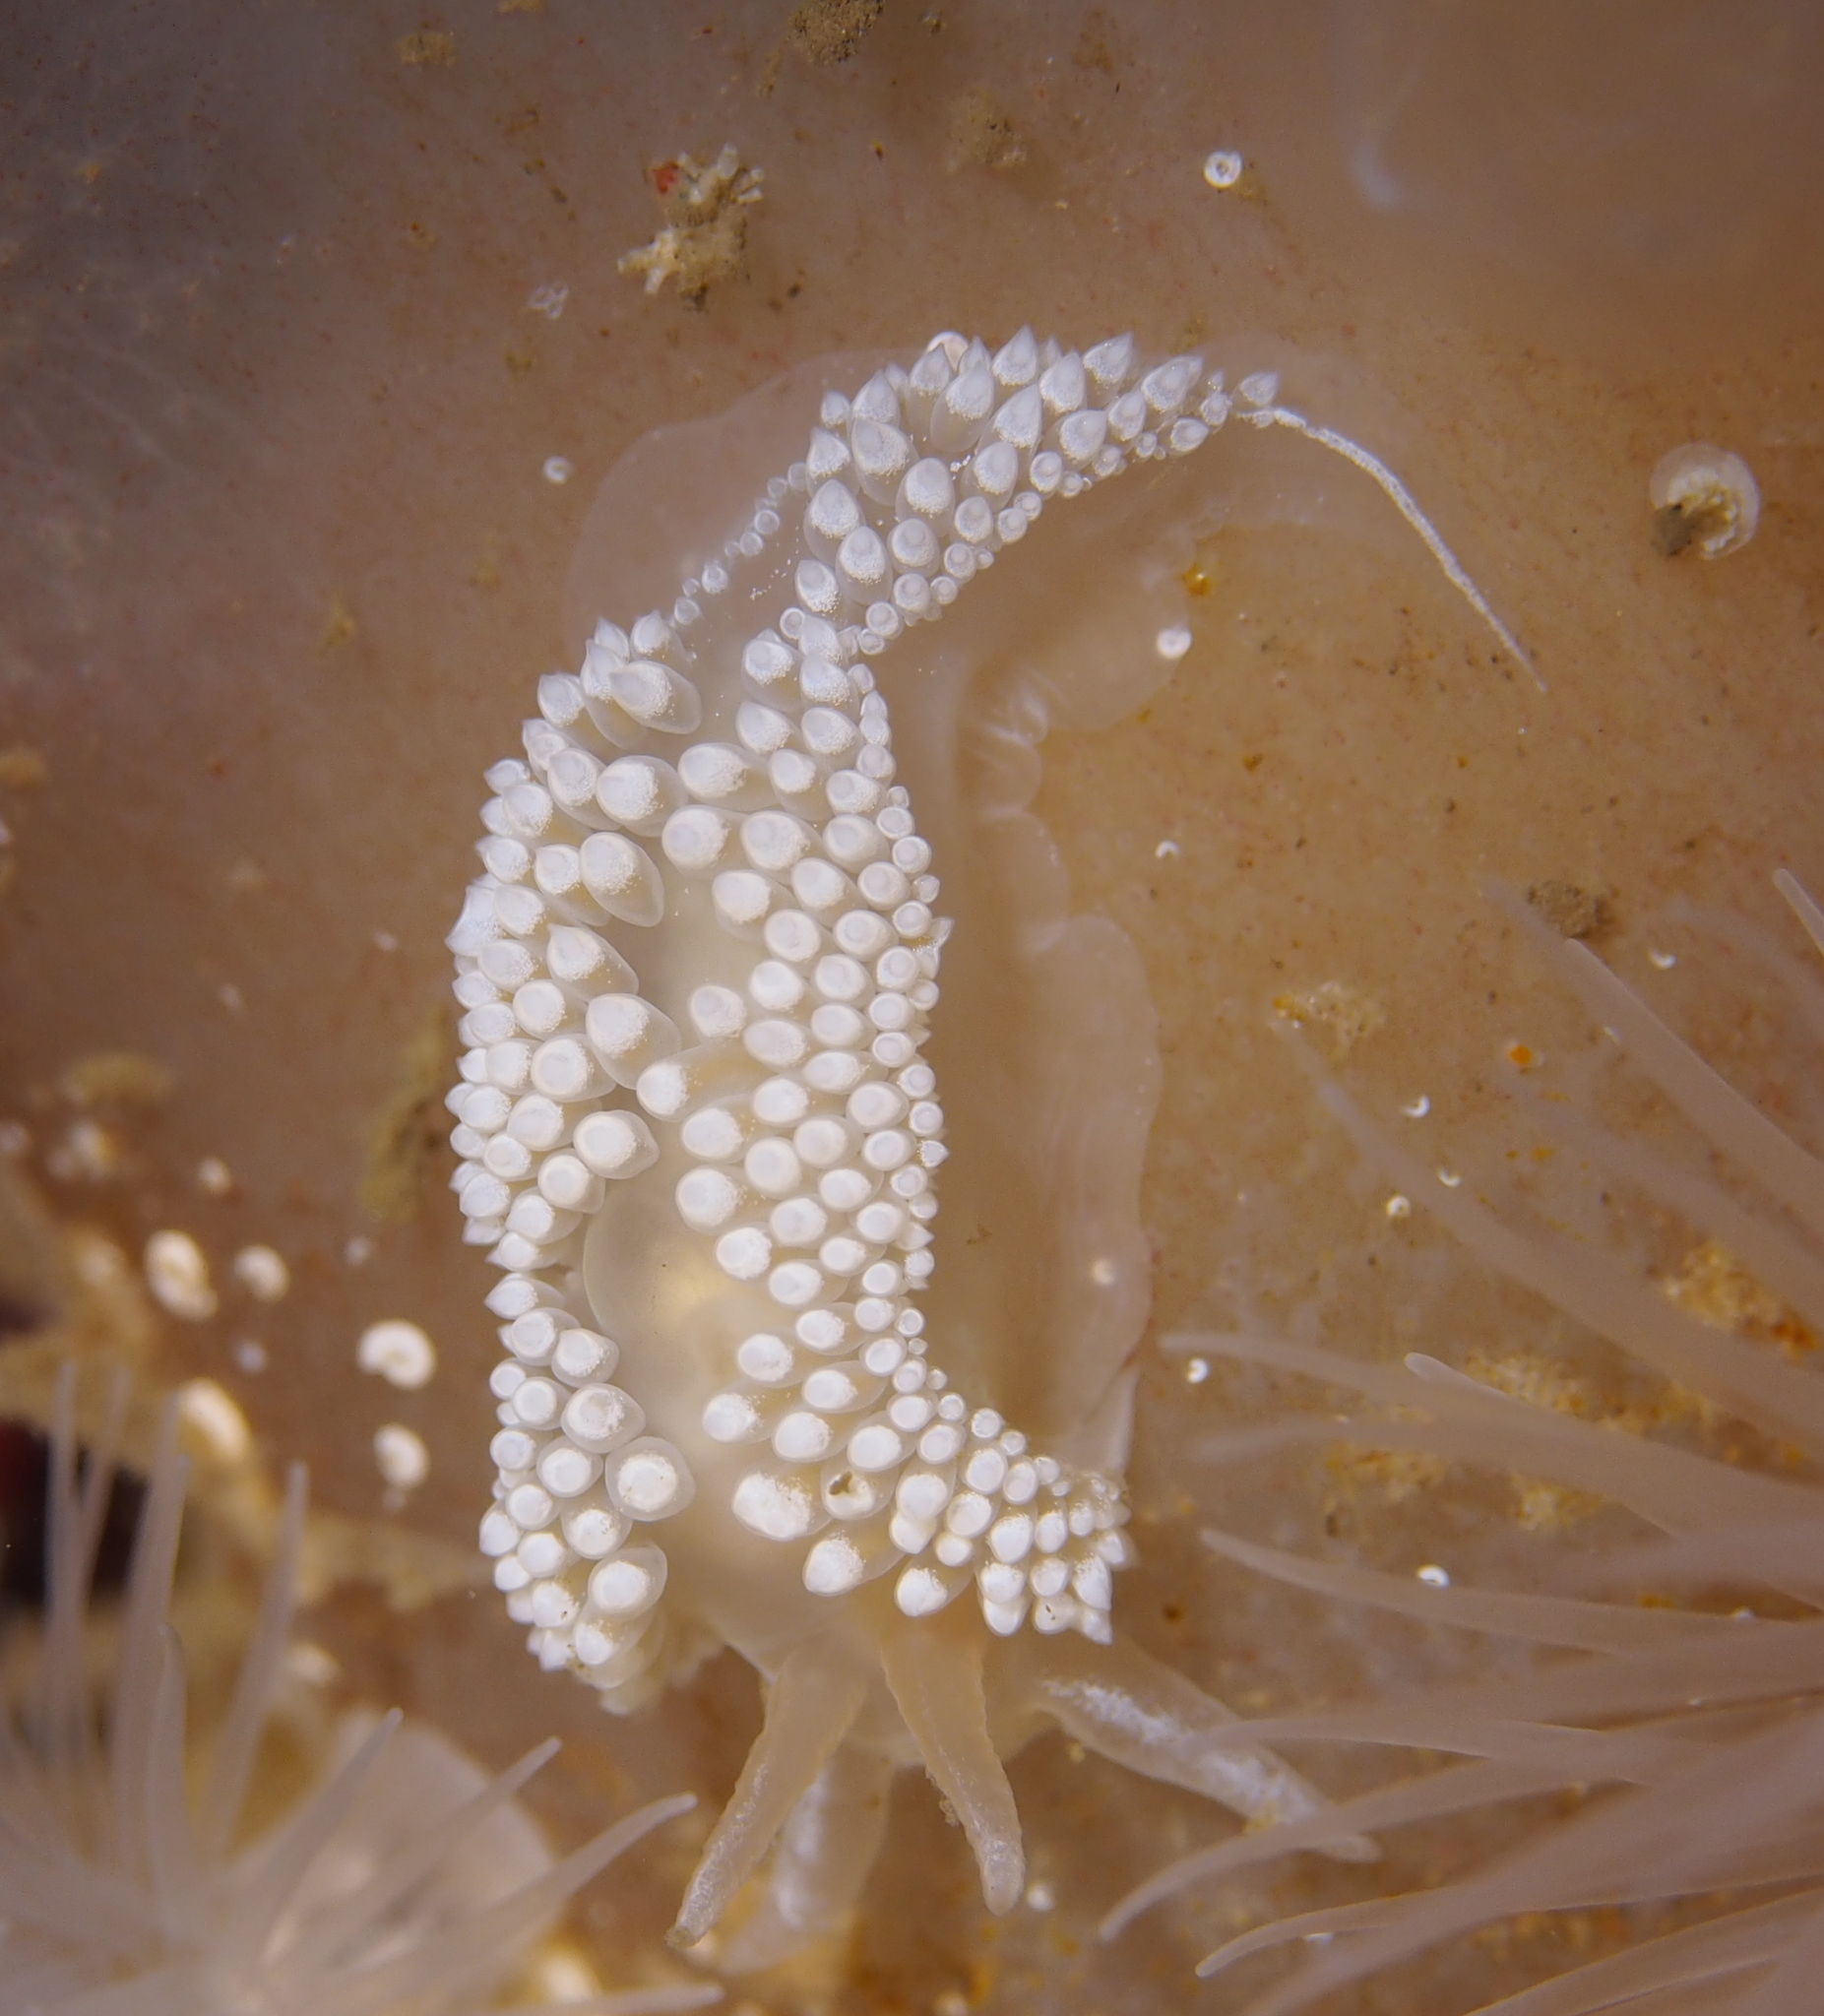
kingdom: Animalia
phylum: Mollusca
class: Gastropoda
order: Nudibranchia
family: Coryphellidae
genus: Coryphella
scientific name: Coryphella verrucosa
